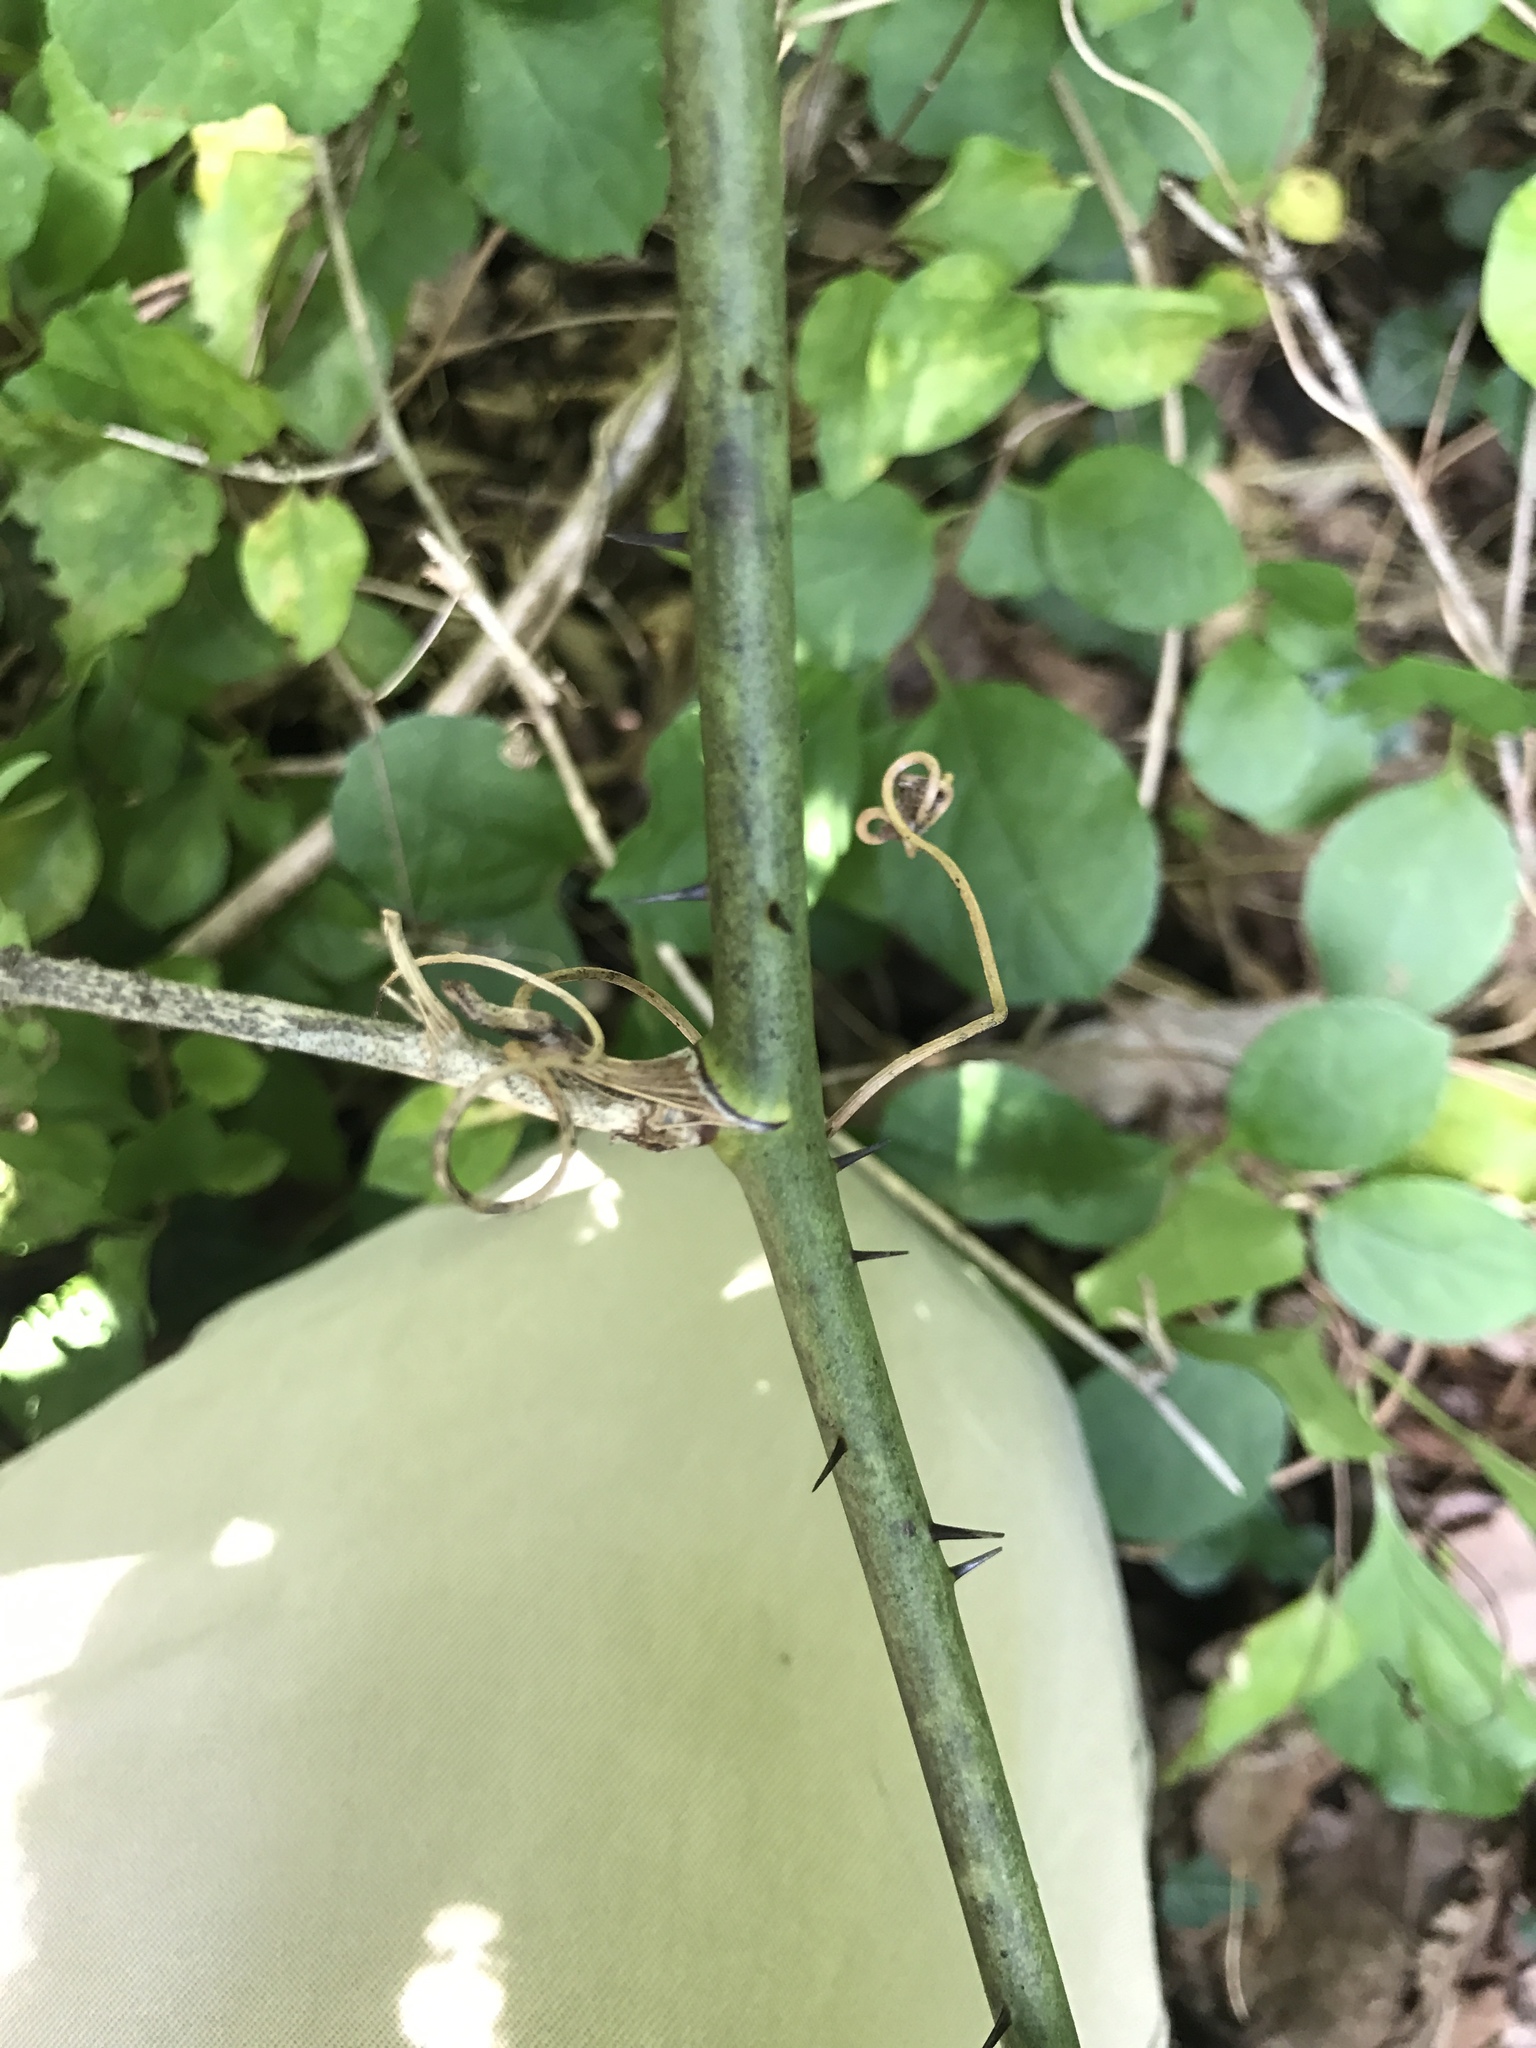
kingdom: Plantae
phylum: Tracheophyta
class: Liliopsida
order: Liliales
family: Smilacaceae
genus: Smilax
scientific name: Smilax tamnoides
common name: Hellfetter
